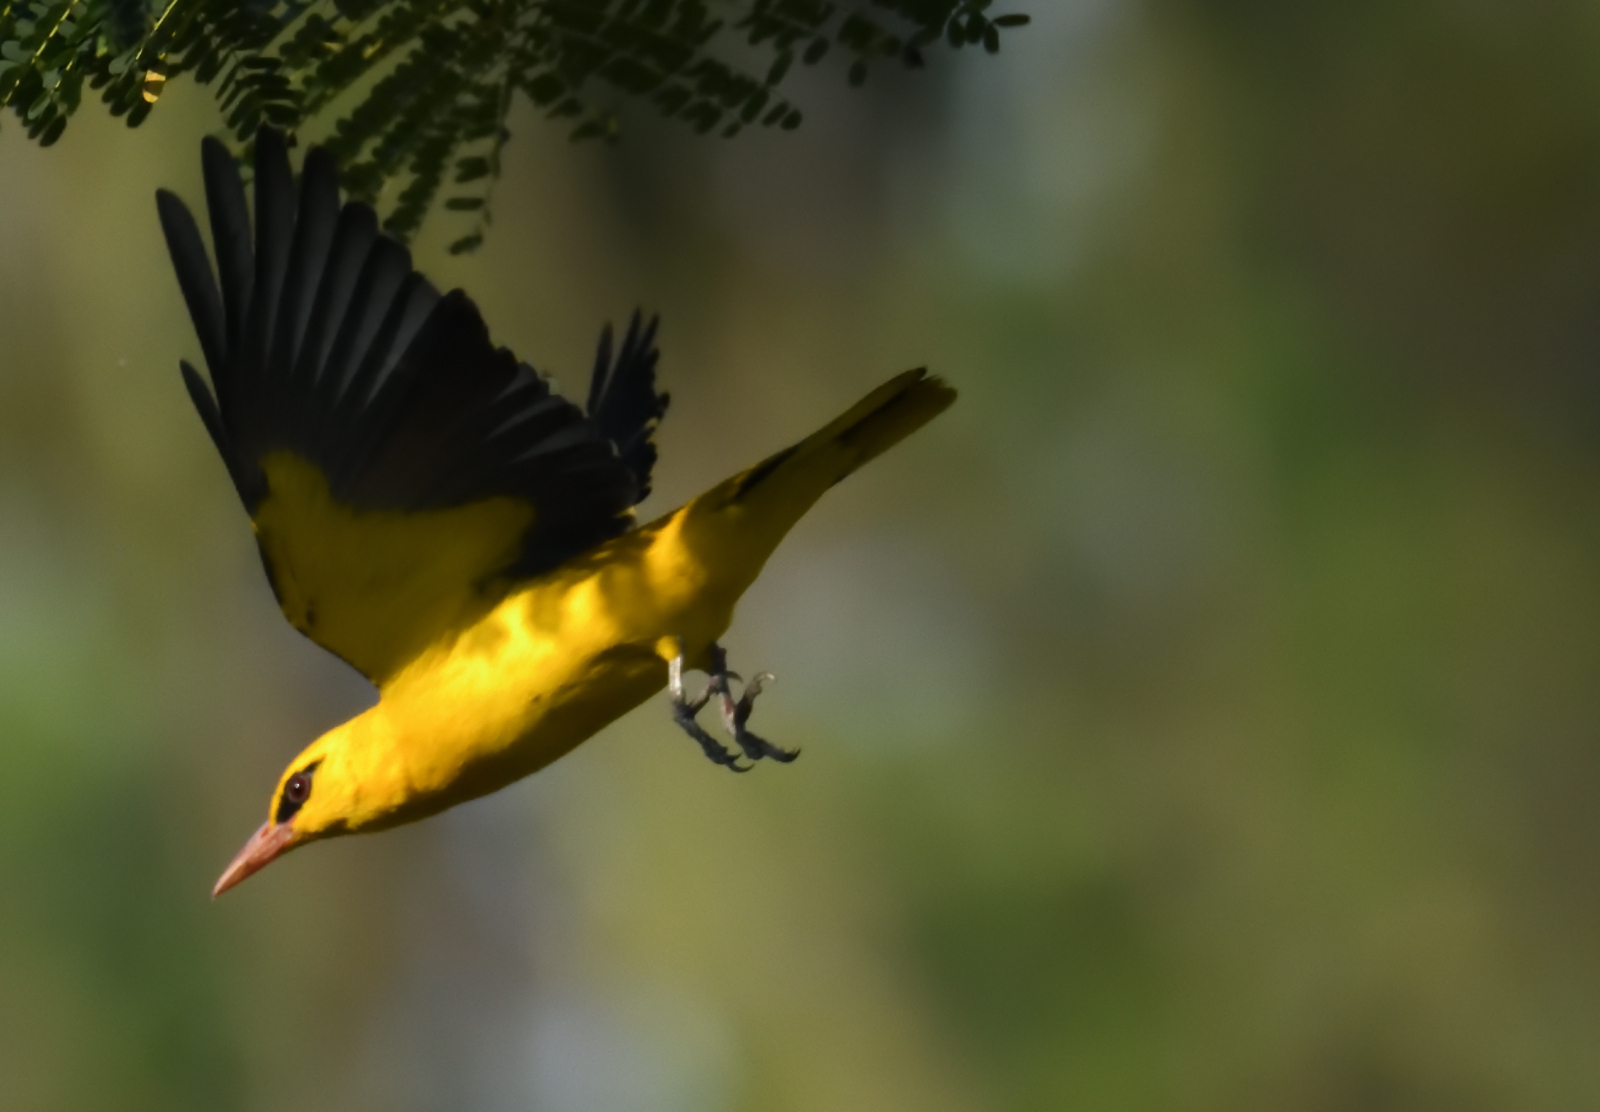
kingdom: Animalia
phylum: Chordata
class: Aves
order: Passeriformes
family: Oriolidae
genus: Oriolus
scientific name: Oriolus kundoo
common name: Indian golden oriole
